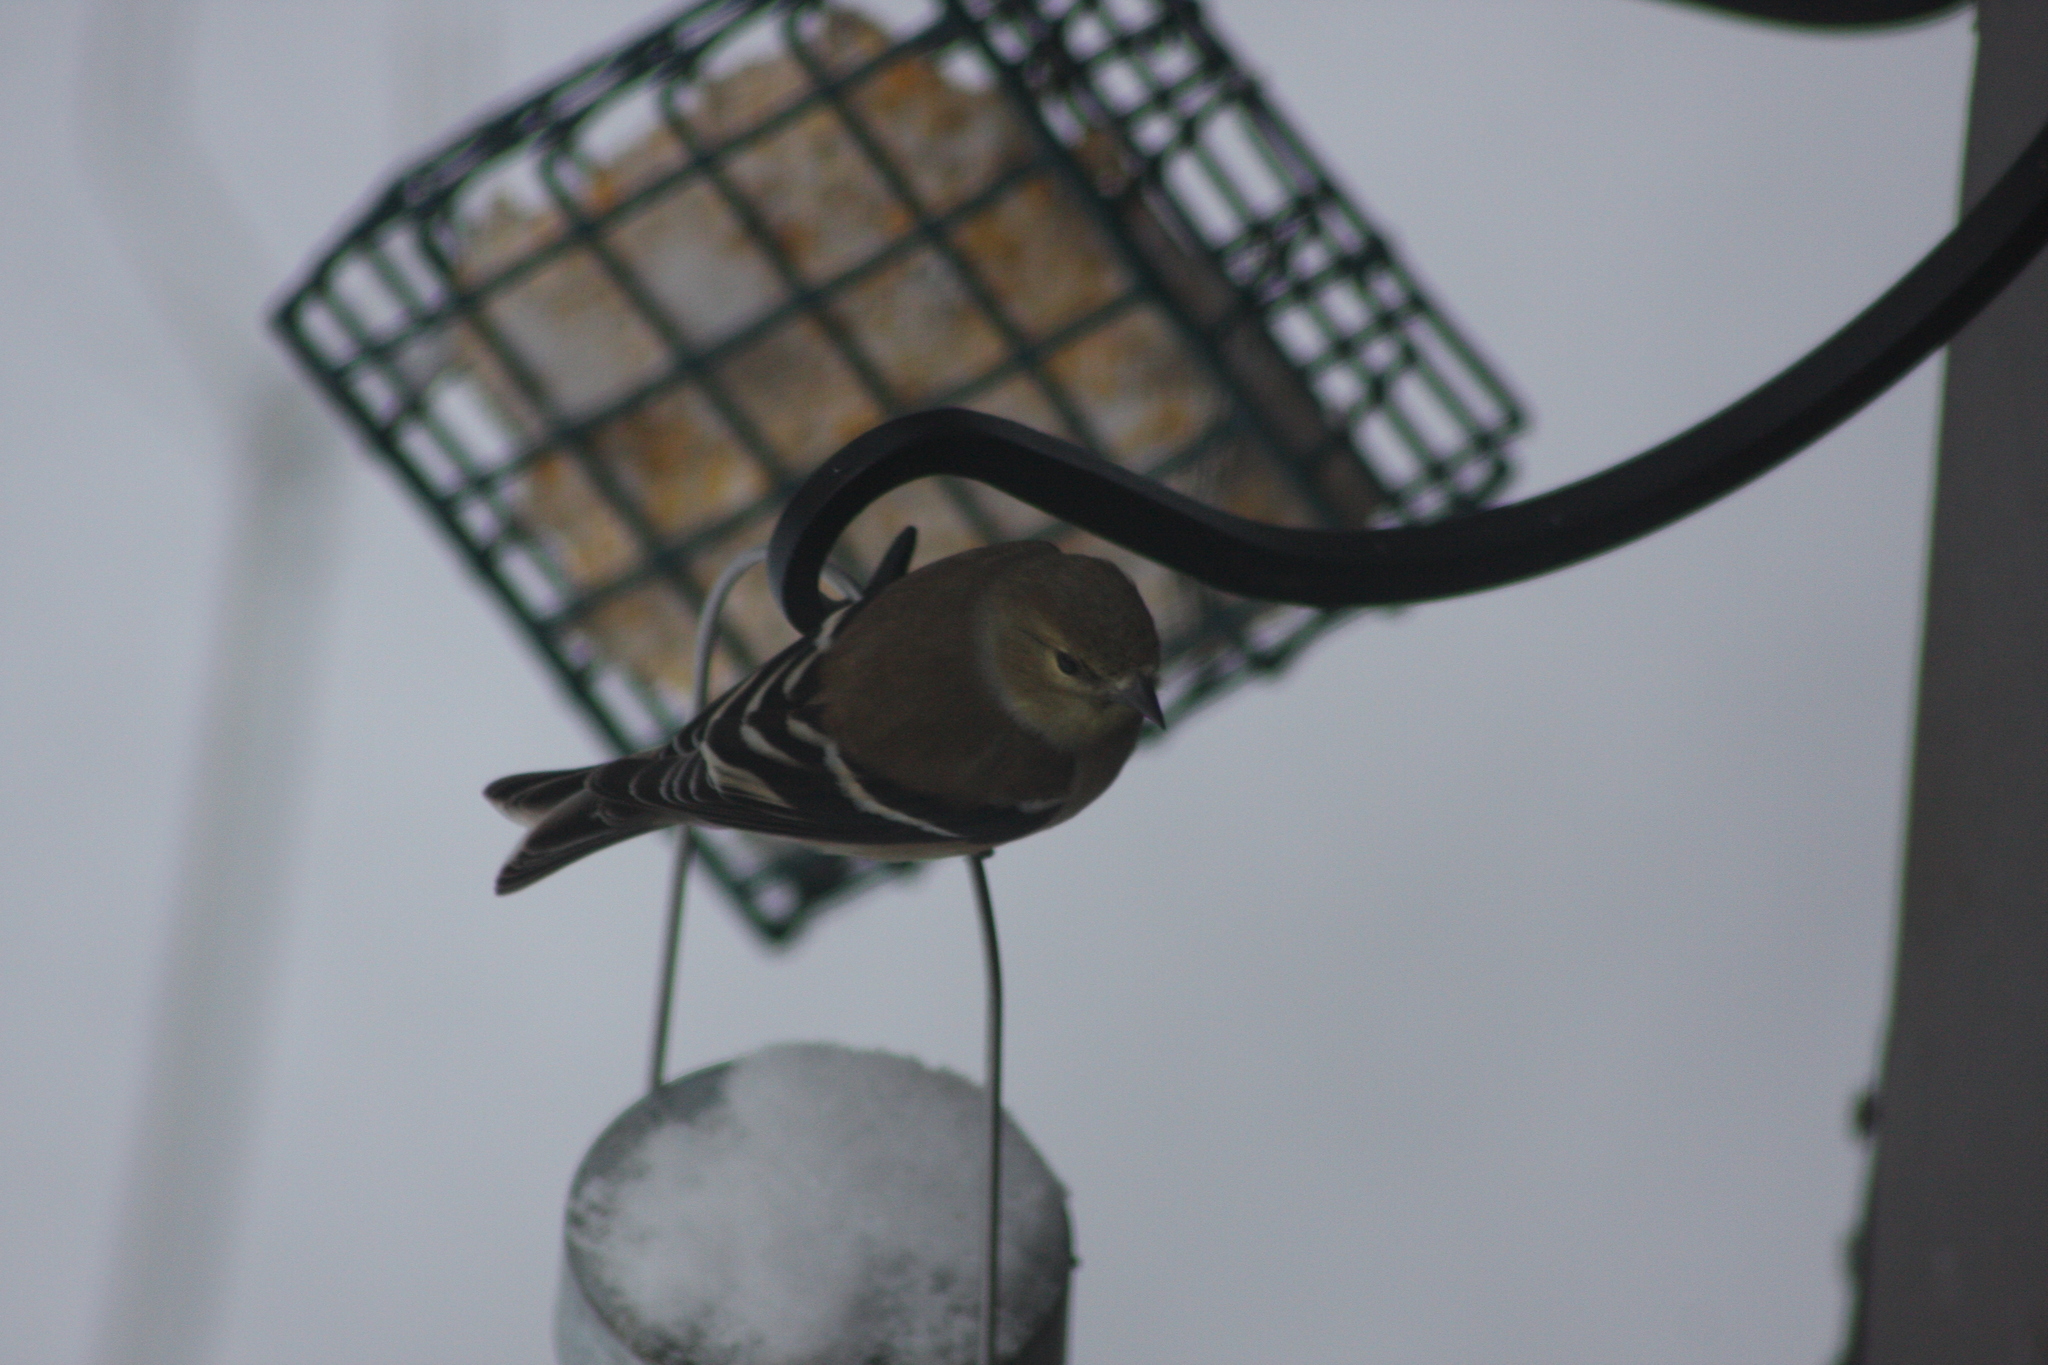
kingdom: Animalia
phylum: Chordata
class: Aves
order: Passeriformes
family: Fringillidae
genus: Spinus
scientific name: Spinus tristis
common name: American goldfinch
